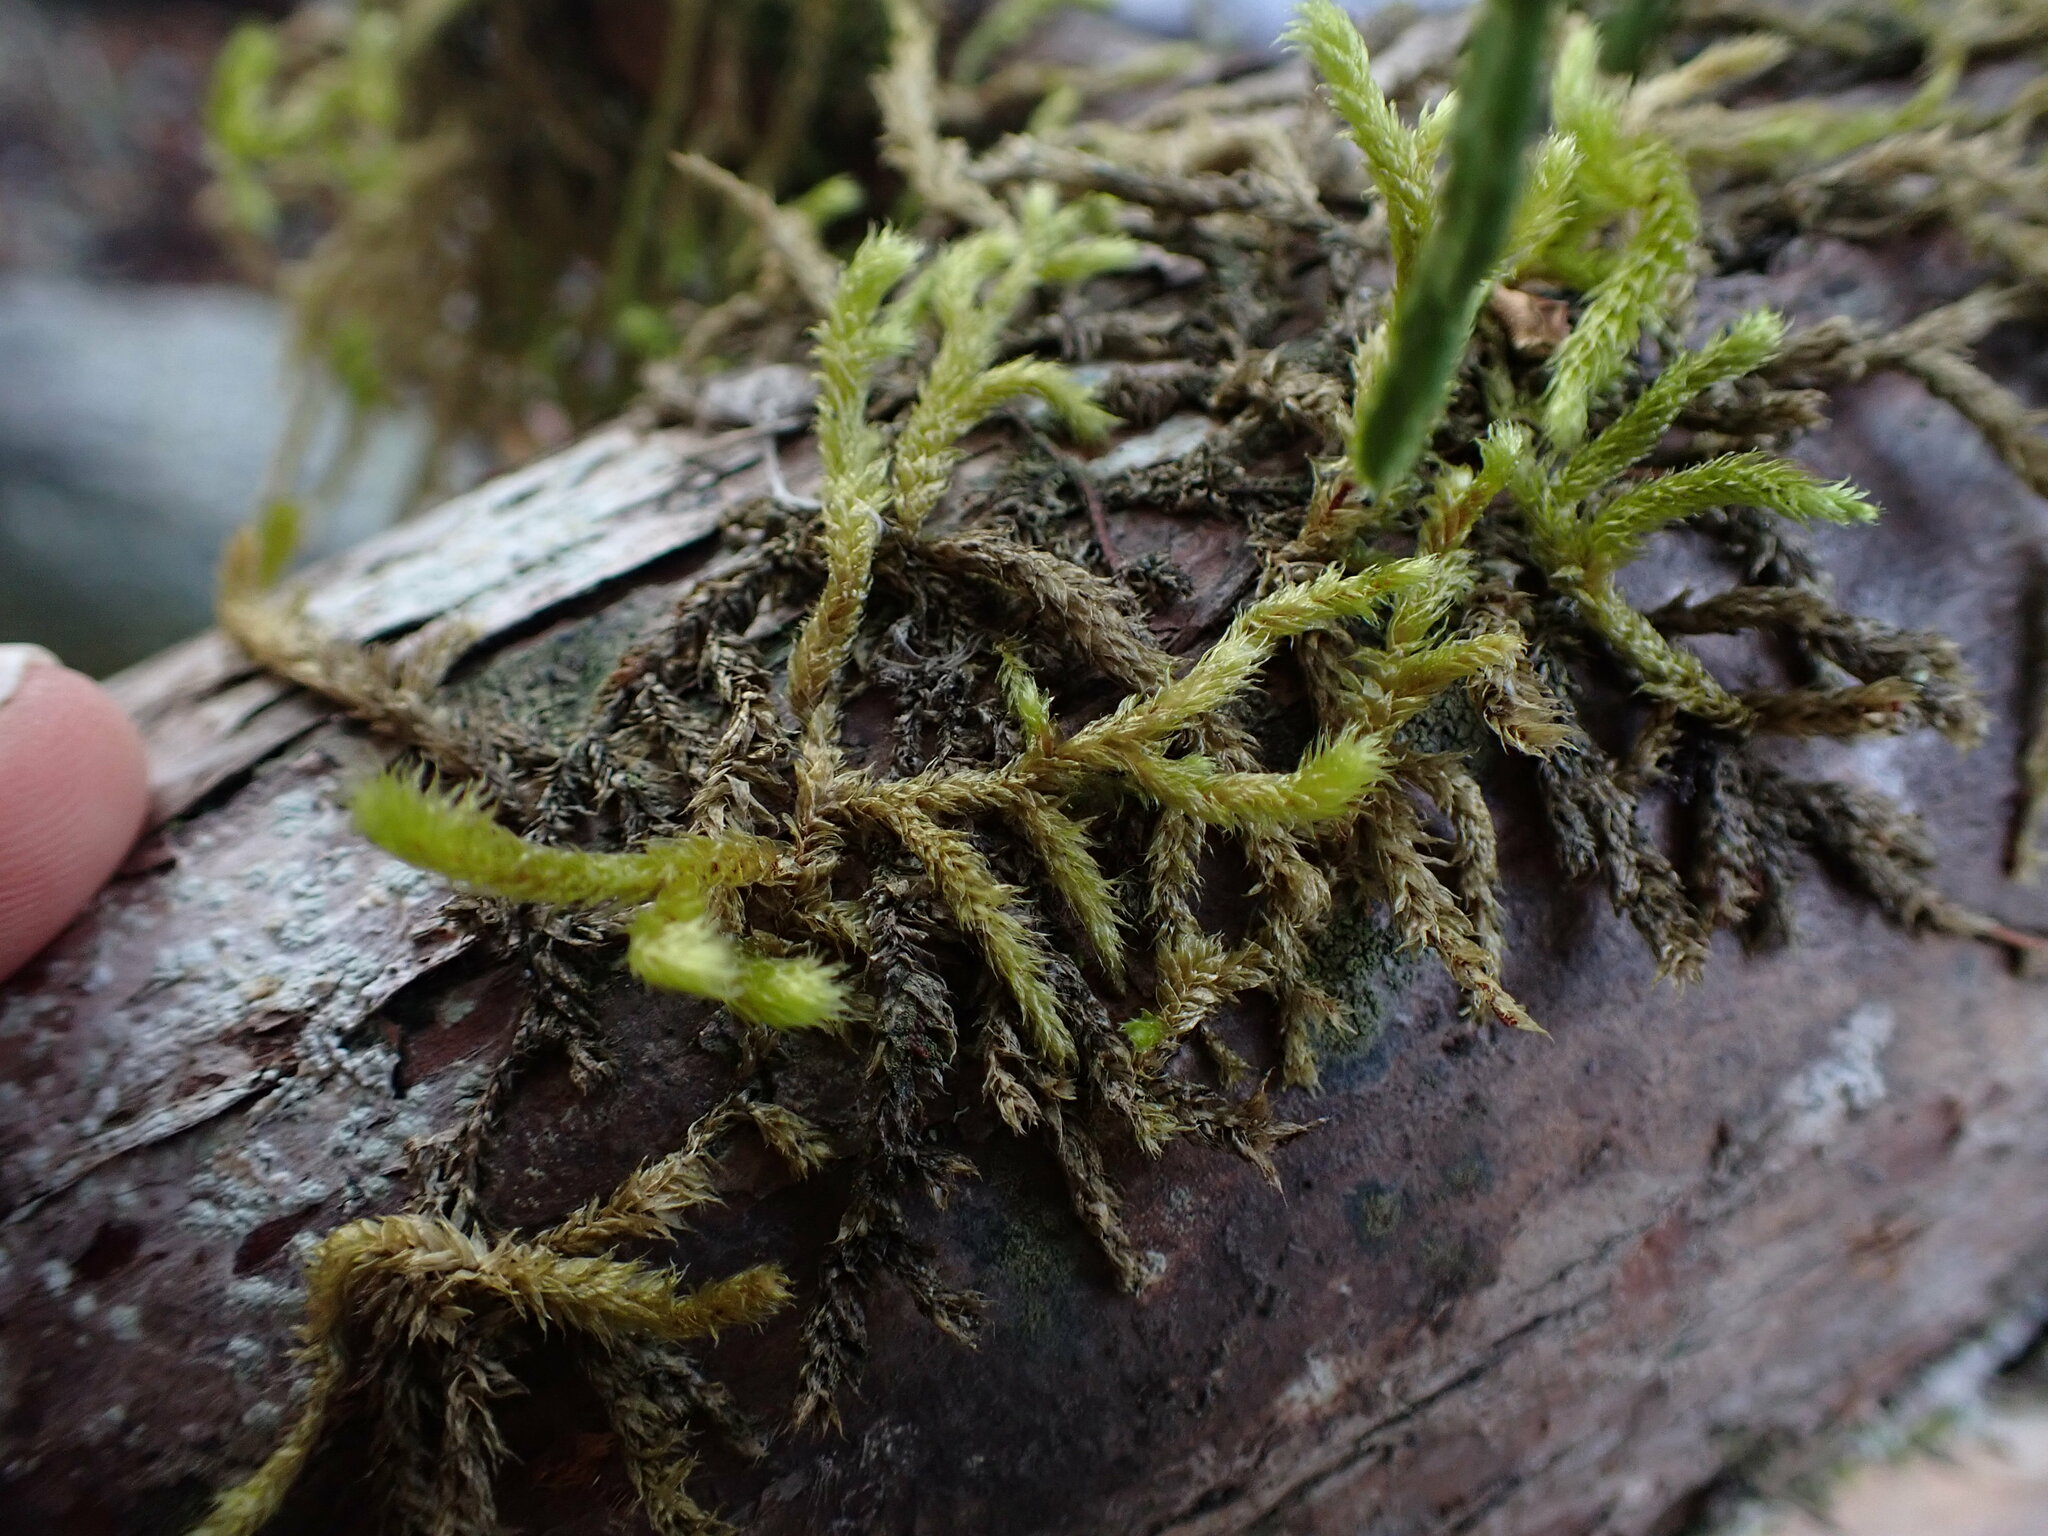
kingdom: Plantae
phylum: Bryophyta
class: Bryopsida
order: Hypnales
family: Antitrichiaceae
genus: Antitrichia
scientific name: Antitrichia curtipendula
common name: Pendulous wing-moss
